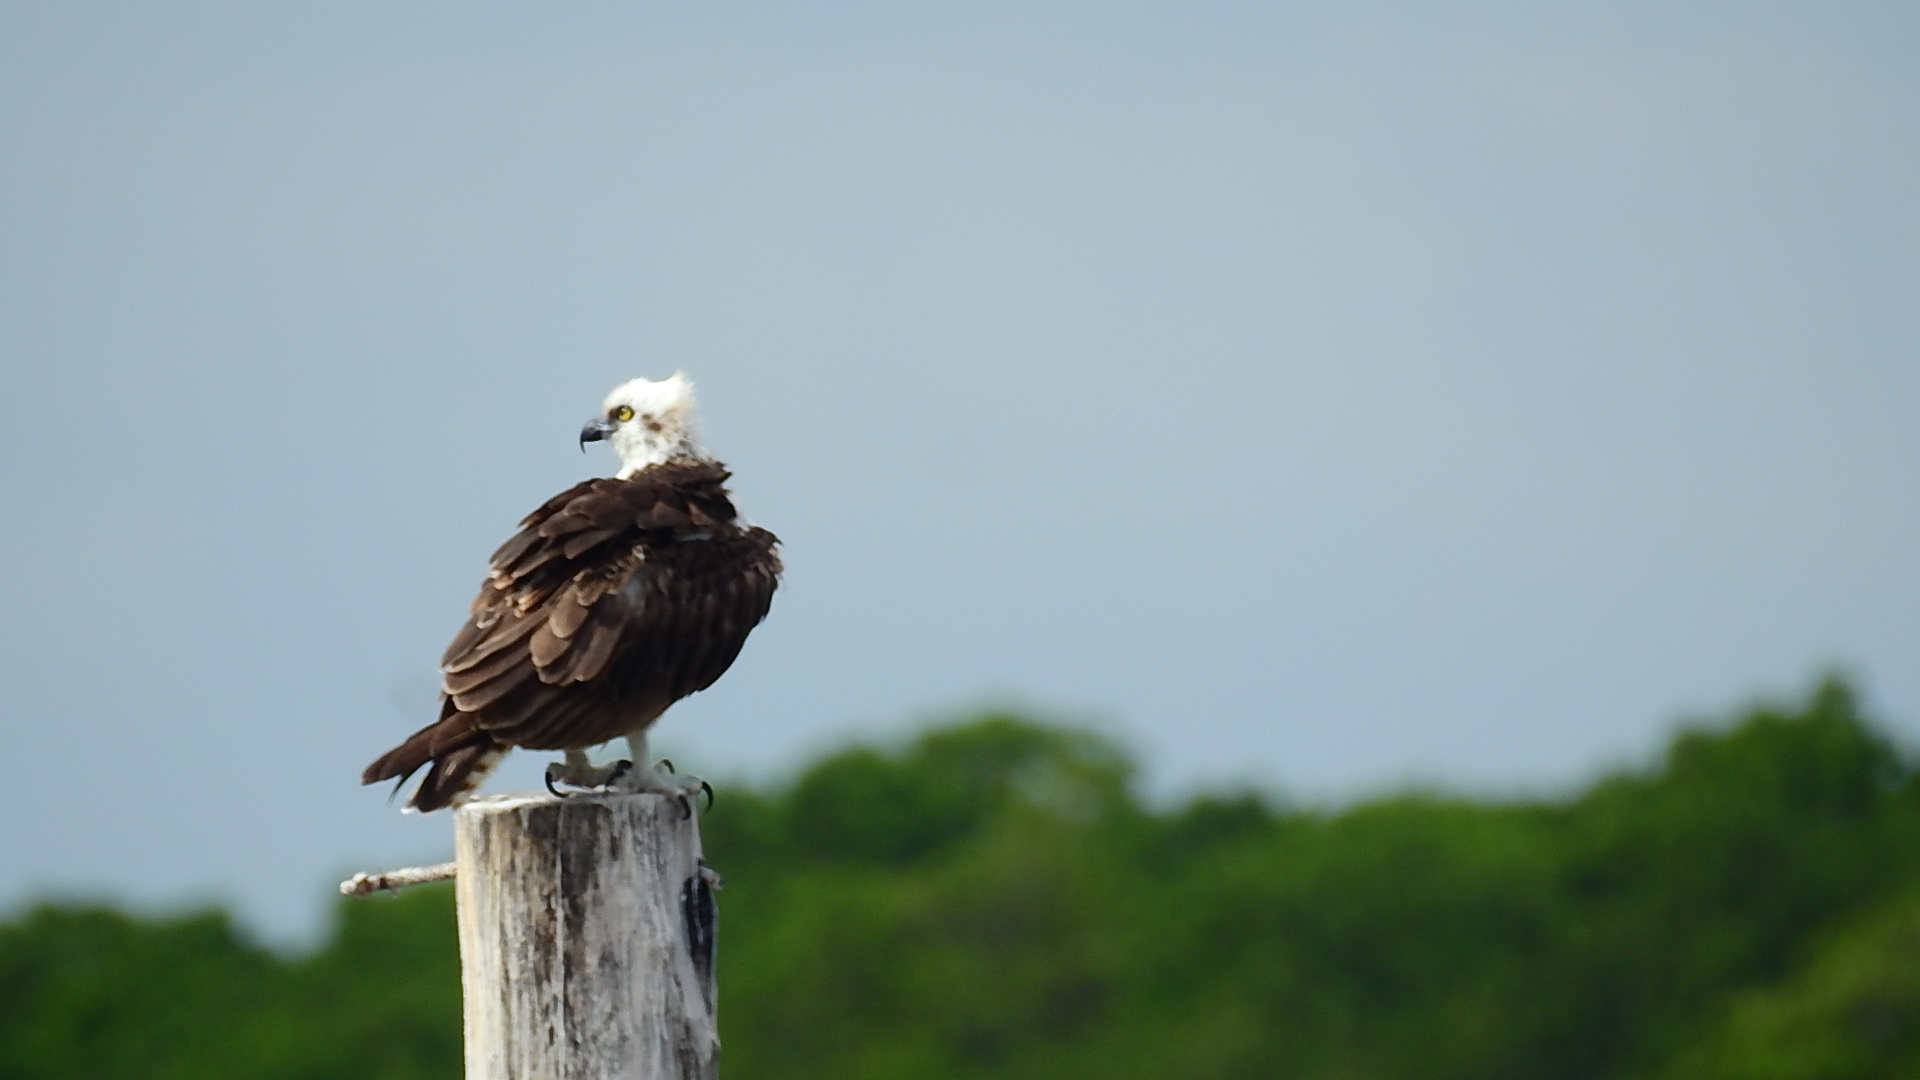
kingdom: Animalia
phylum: Chordata
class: Aves
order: Accipitriformes
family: Pandionidae
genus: Pandion
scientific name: Pandion haliaetus
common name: Osprey
